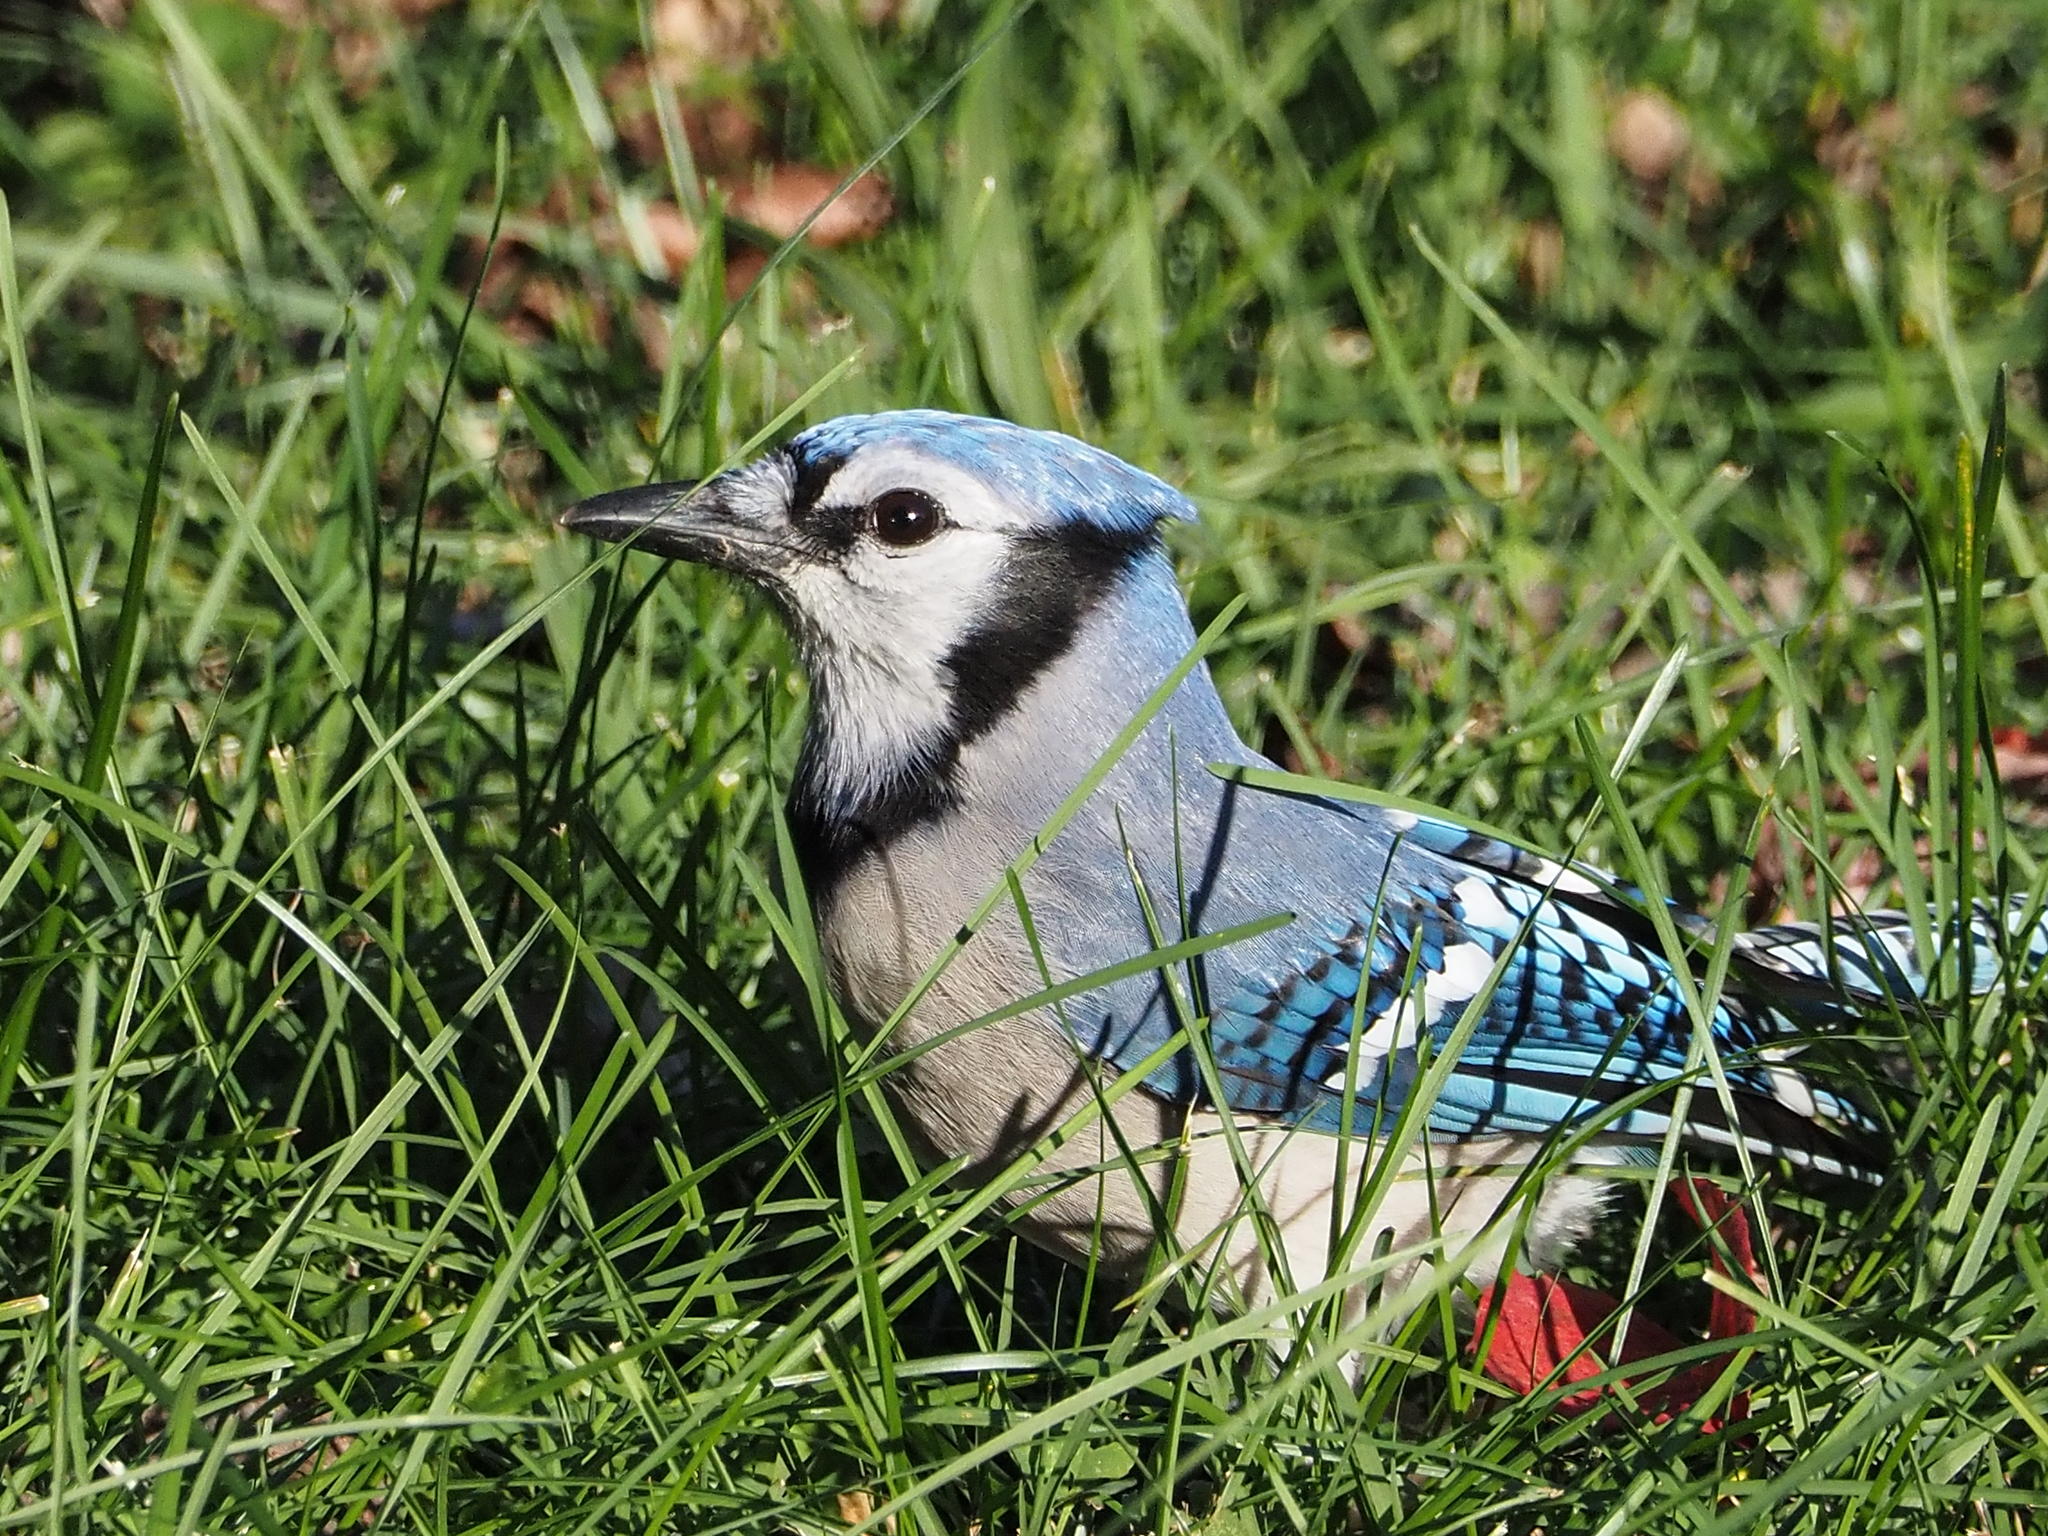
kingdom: Animalia
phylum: Chordata
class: Aves
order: Passeriformes
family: Corvidae
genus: Cyanocitta
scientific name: Cyanocitta cristata
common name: Blue jay
